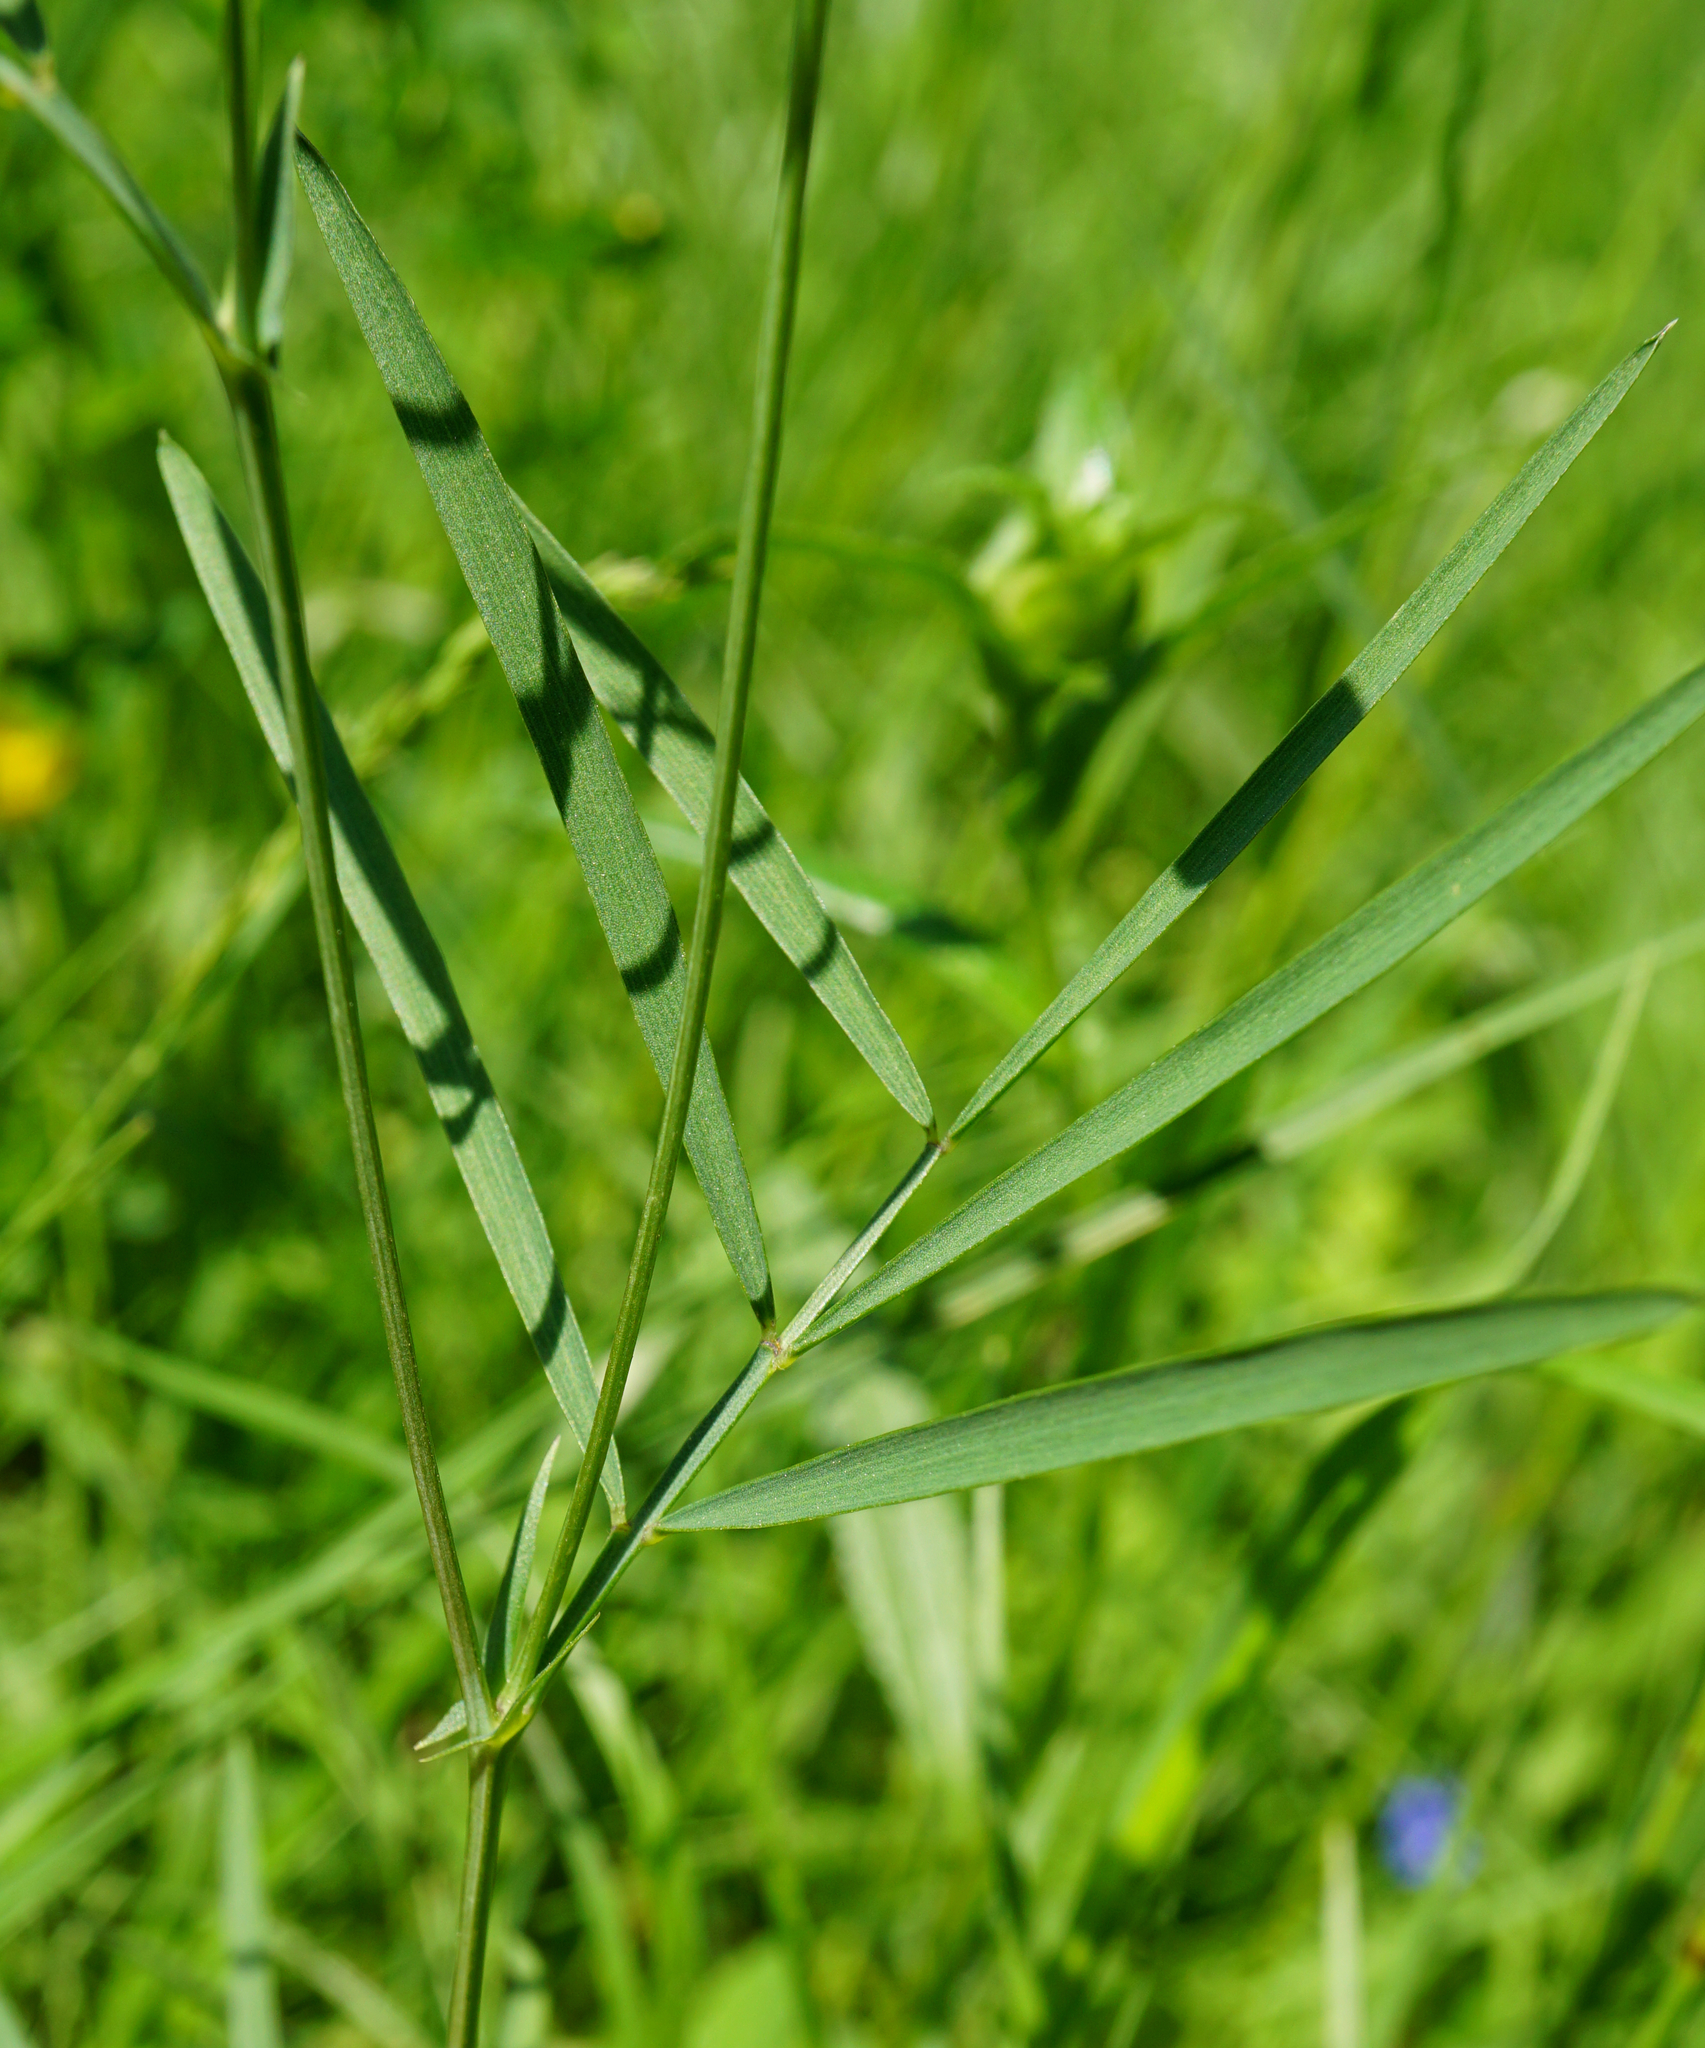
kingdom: Plantae
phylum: Tracheophyta
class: Magnoliopsida
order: Fabales
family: Fabaceae
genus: Lathyrus
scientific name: Lathyrus pannonicus
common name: Pea
